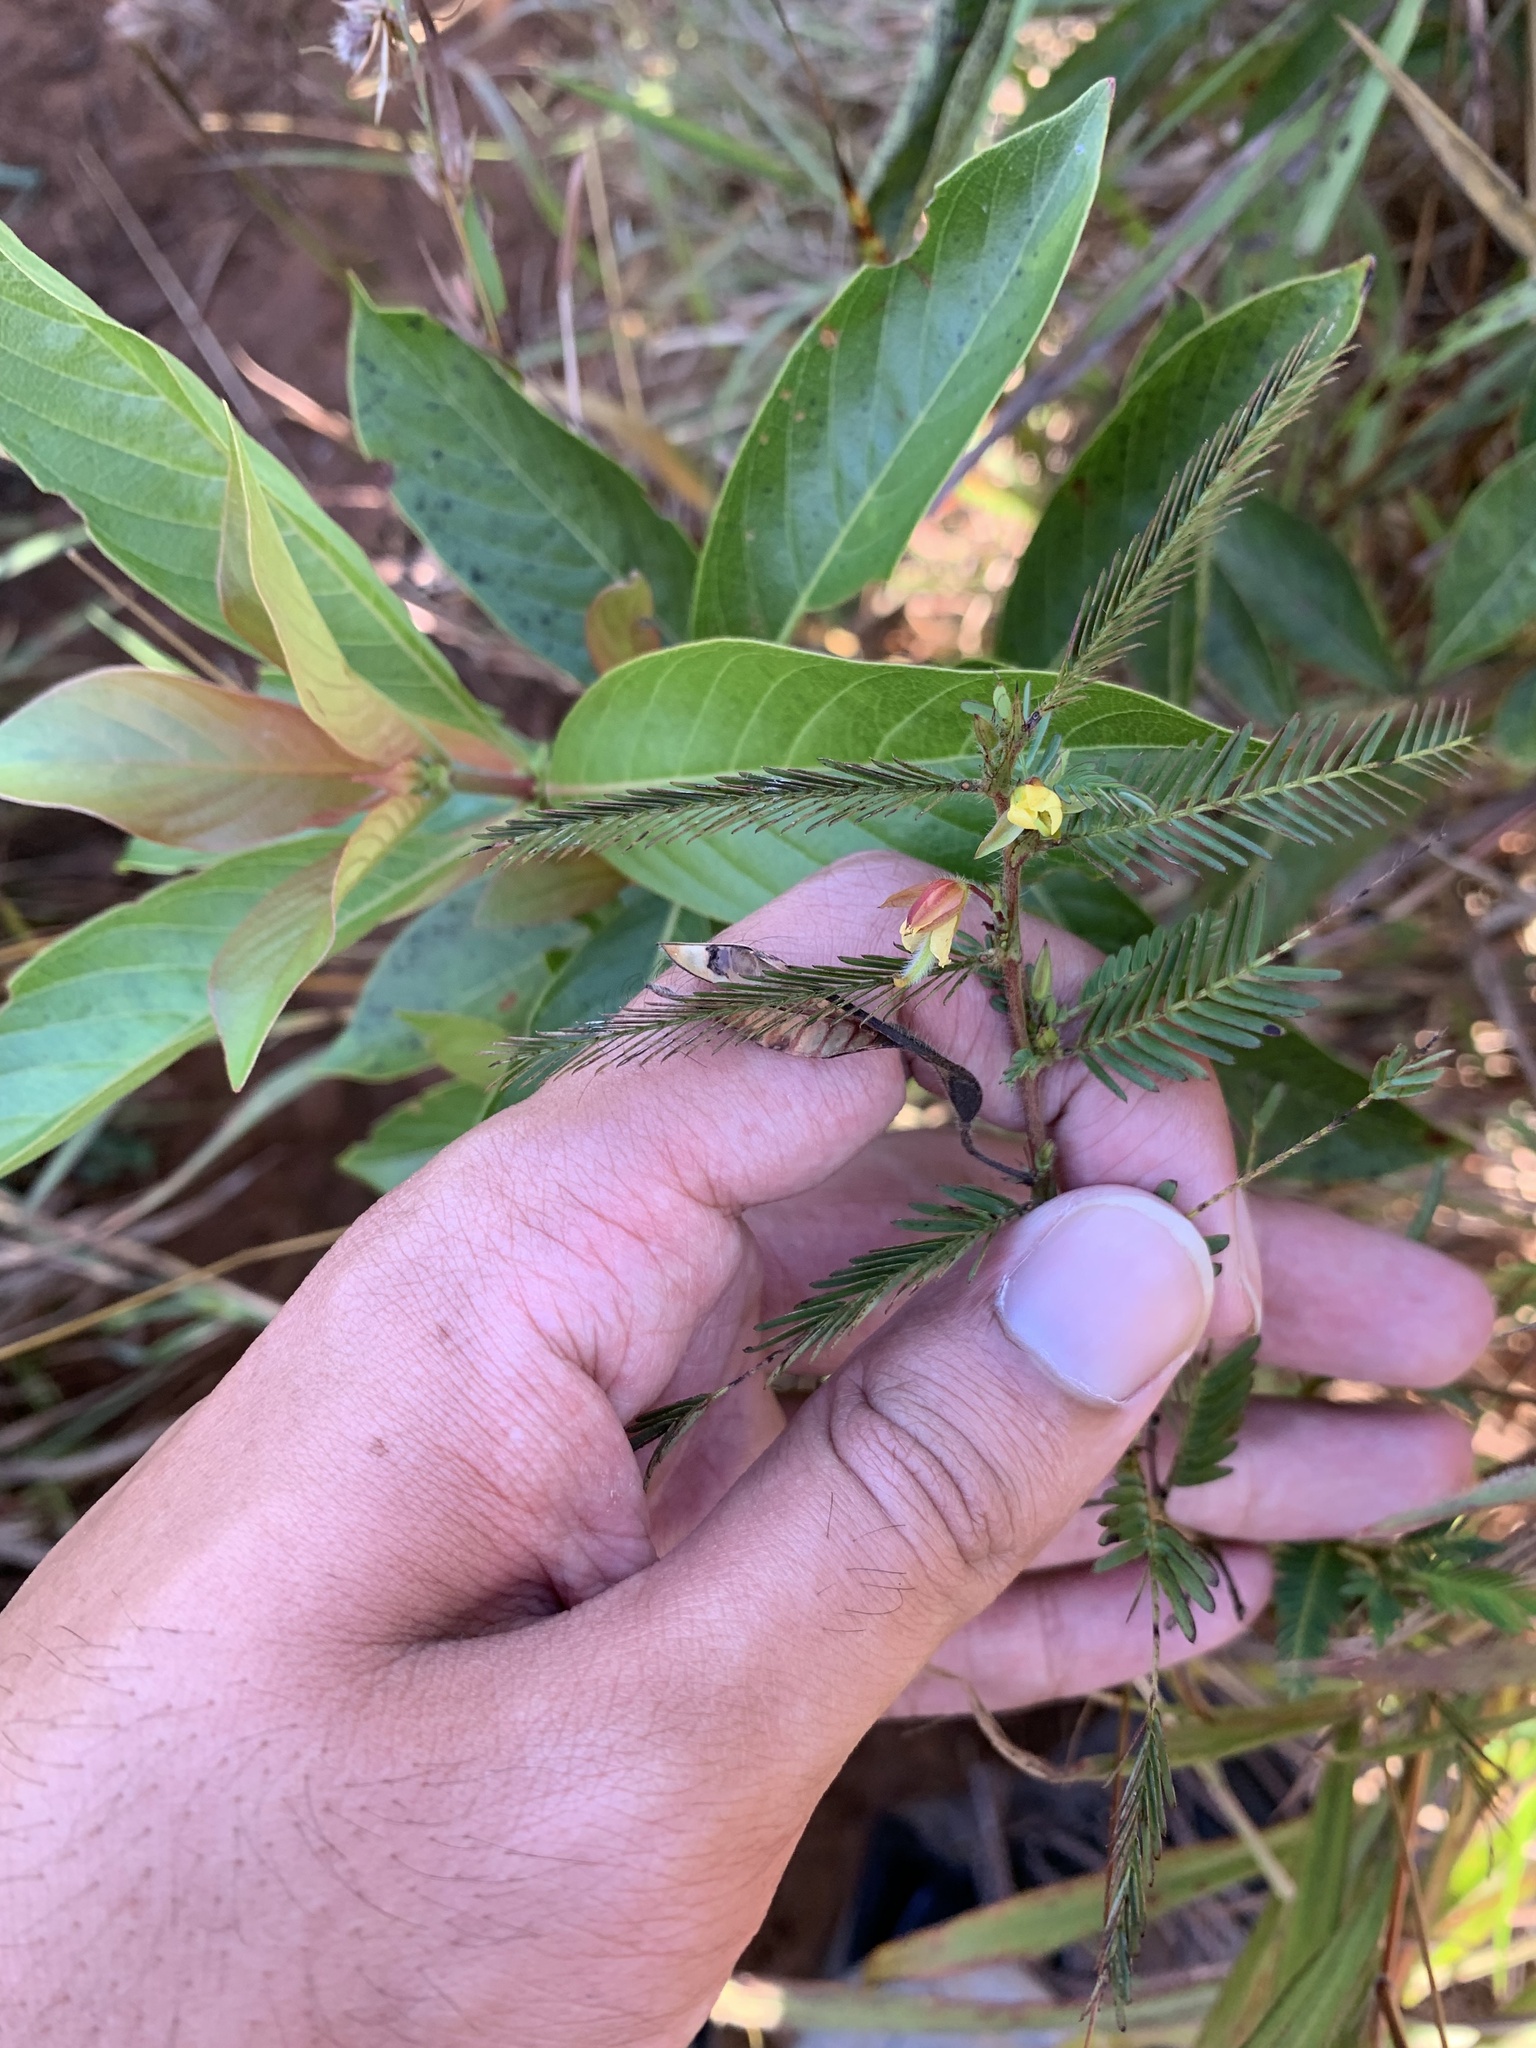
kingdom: Plantae
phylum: Tracheophyta
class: Magnoliopsida
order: Fabales
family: Fabaceae
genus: Chamaecrista
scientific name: Chamaecrista mimosoides
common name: Fish-bone cassia
